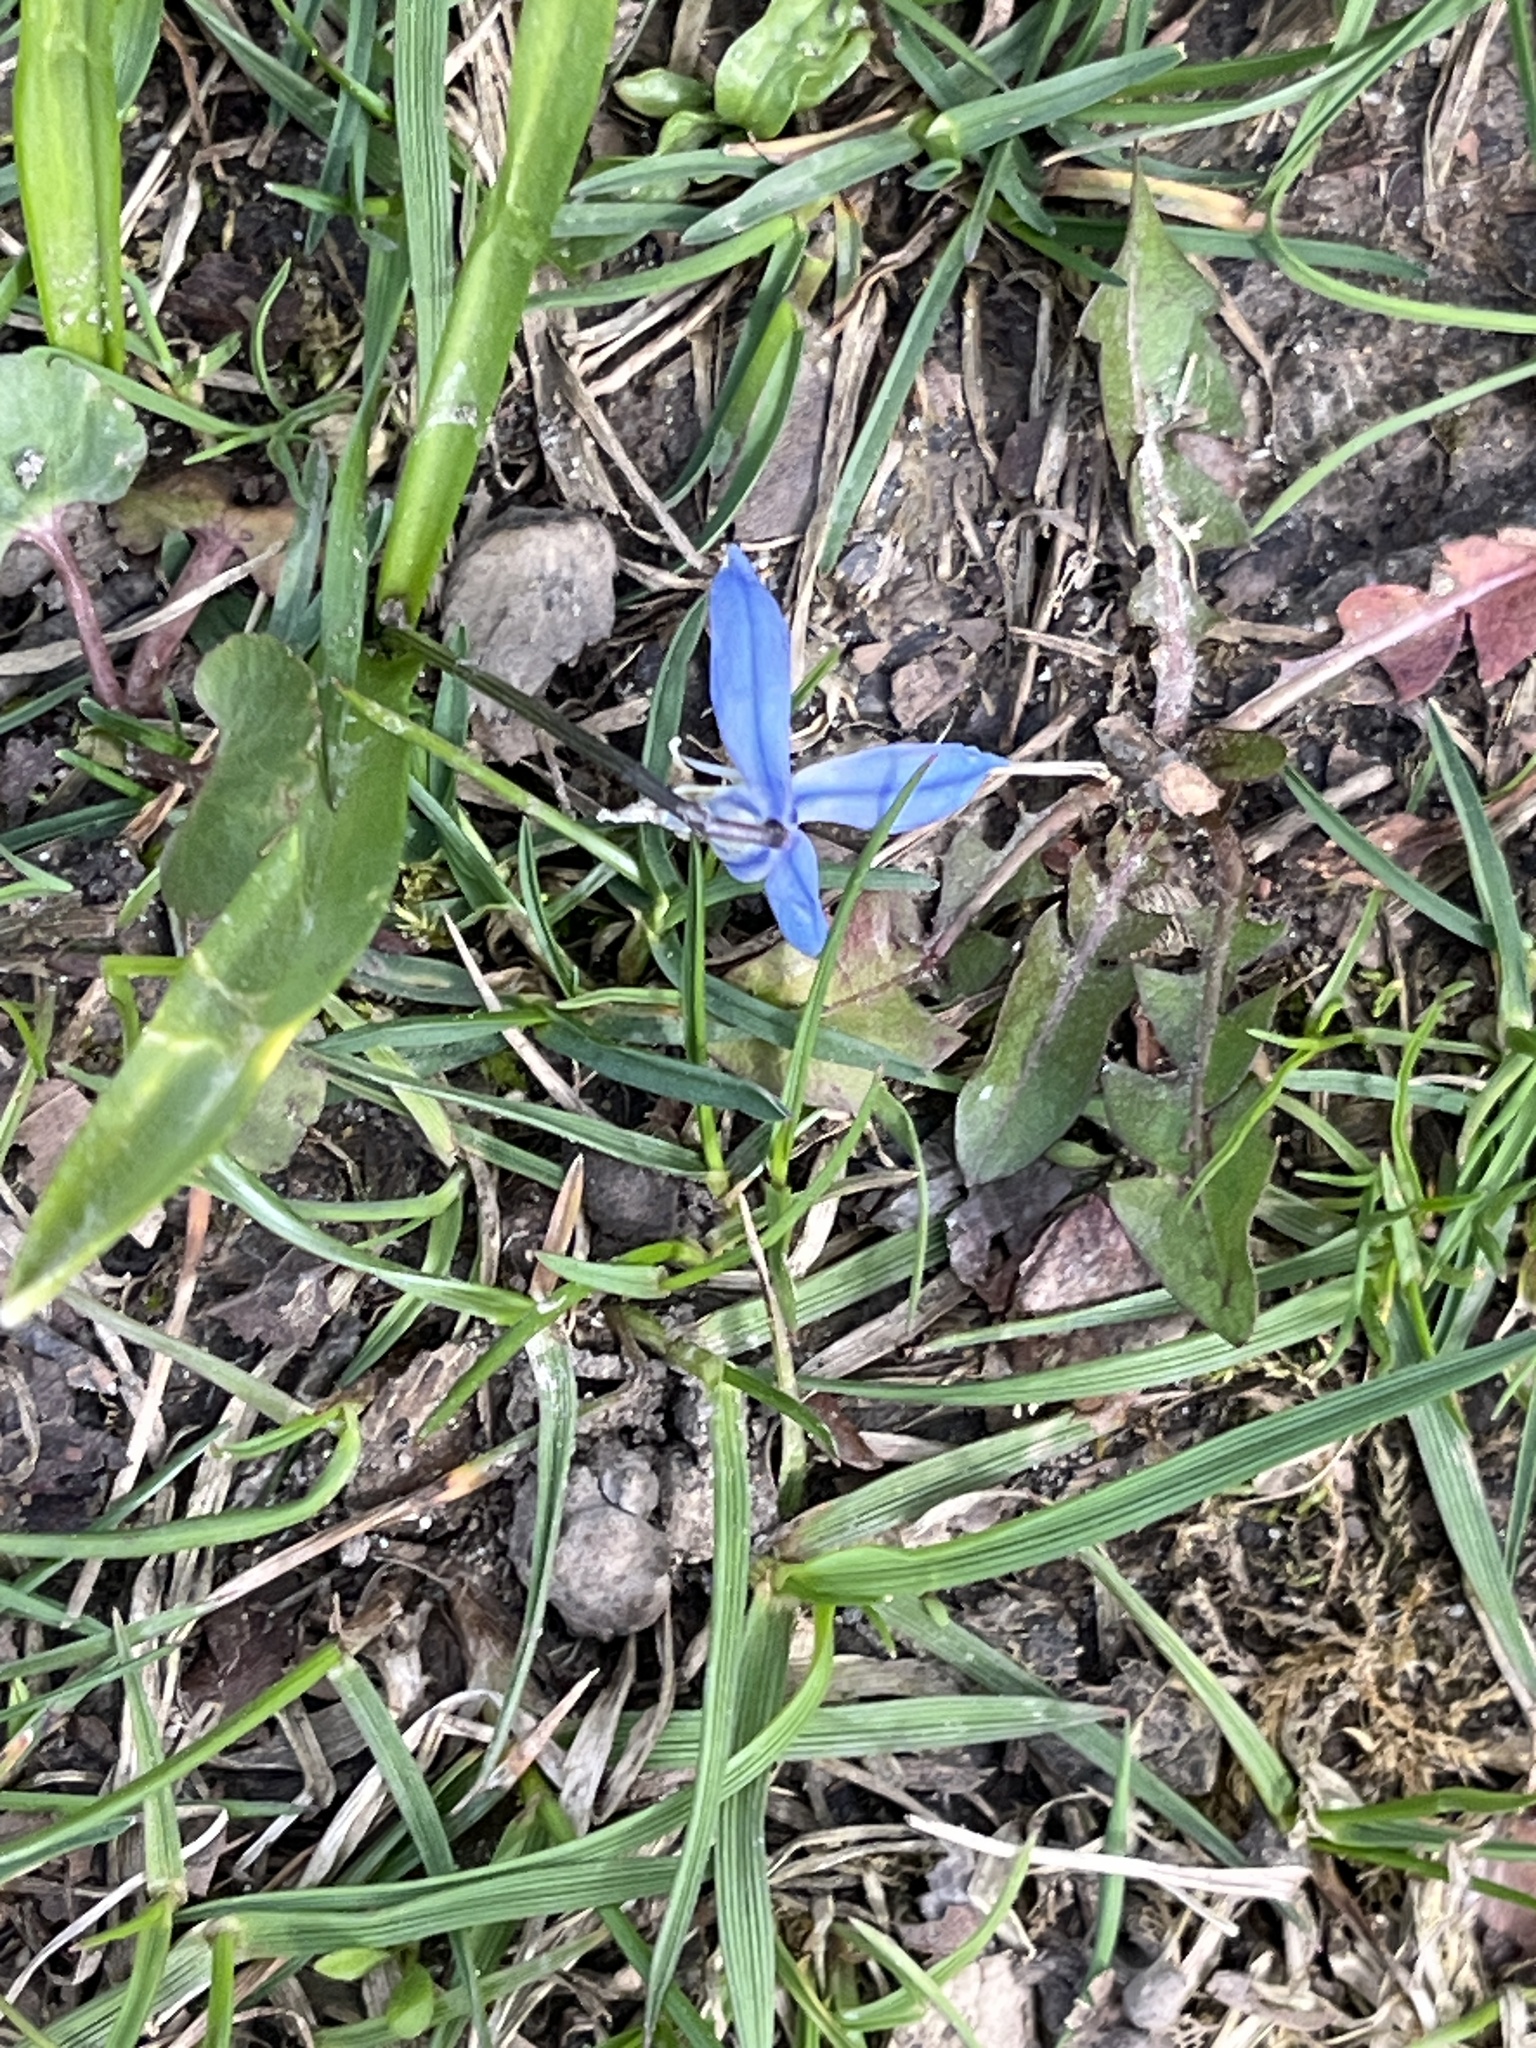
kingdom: Plantae
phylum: Tracheophyta
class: Liliopsida
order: Asparagales
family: Asparagaceae
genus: Scilla
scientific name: Scilla siberica
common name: Siberian squill
